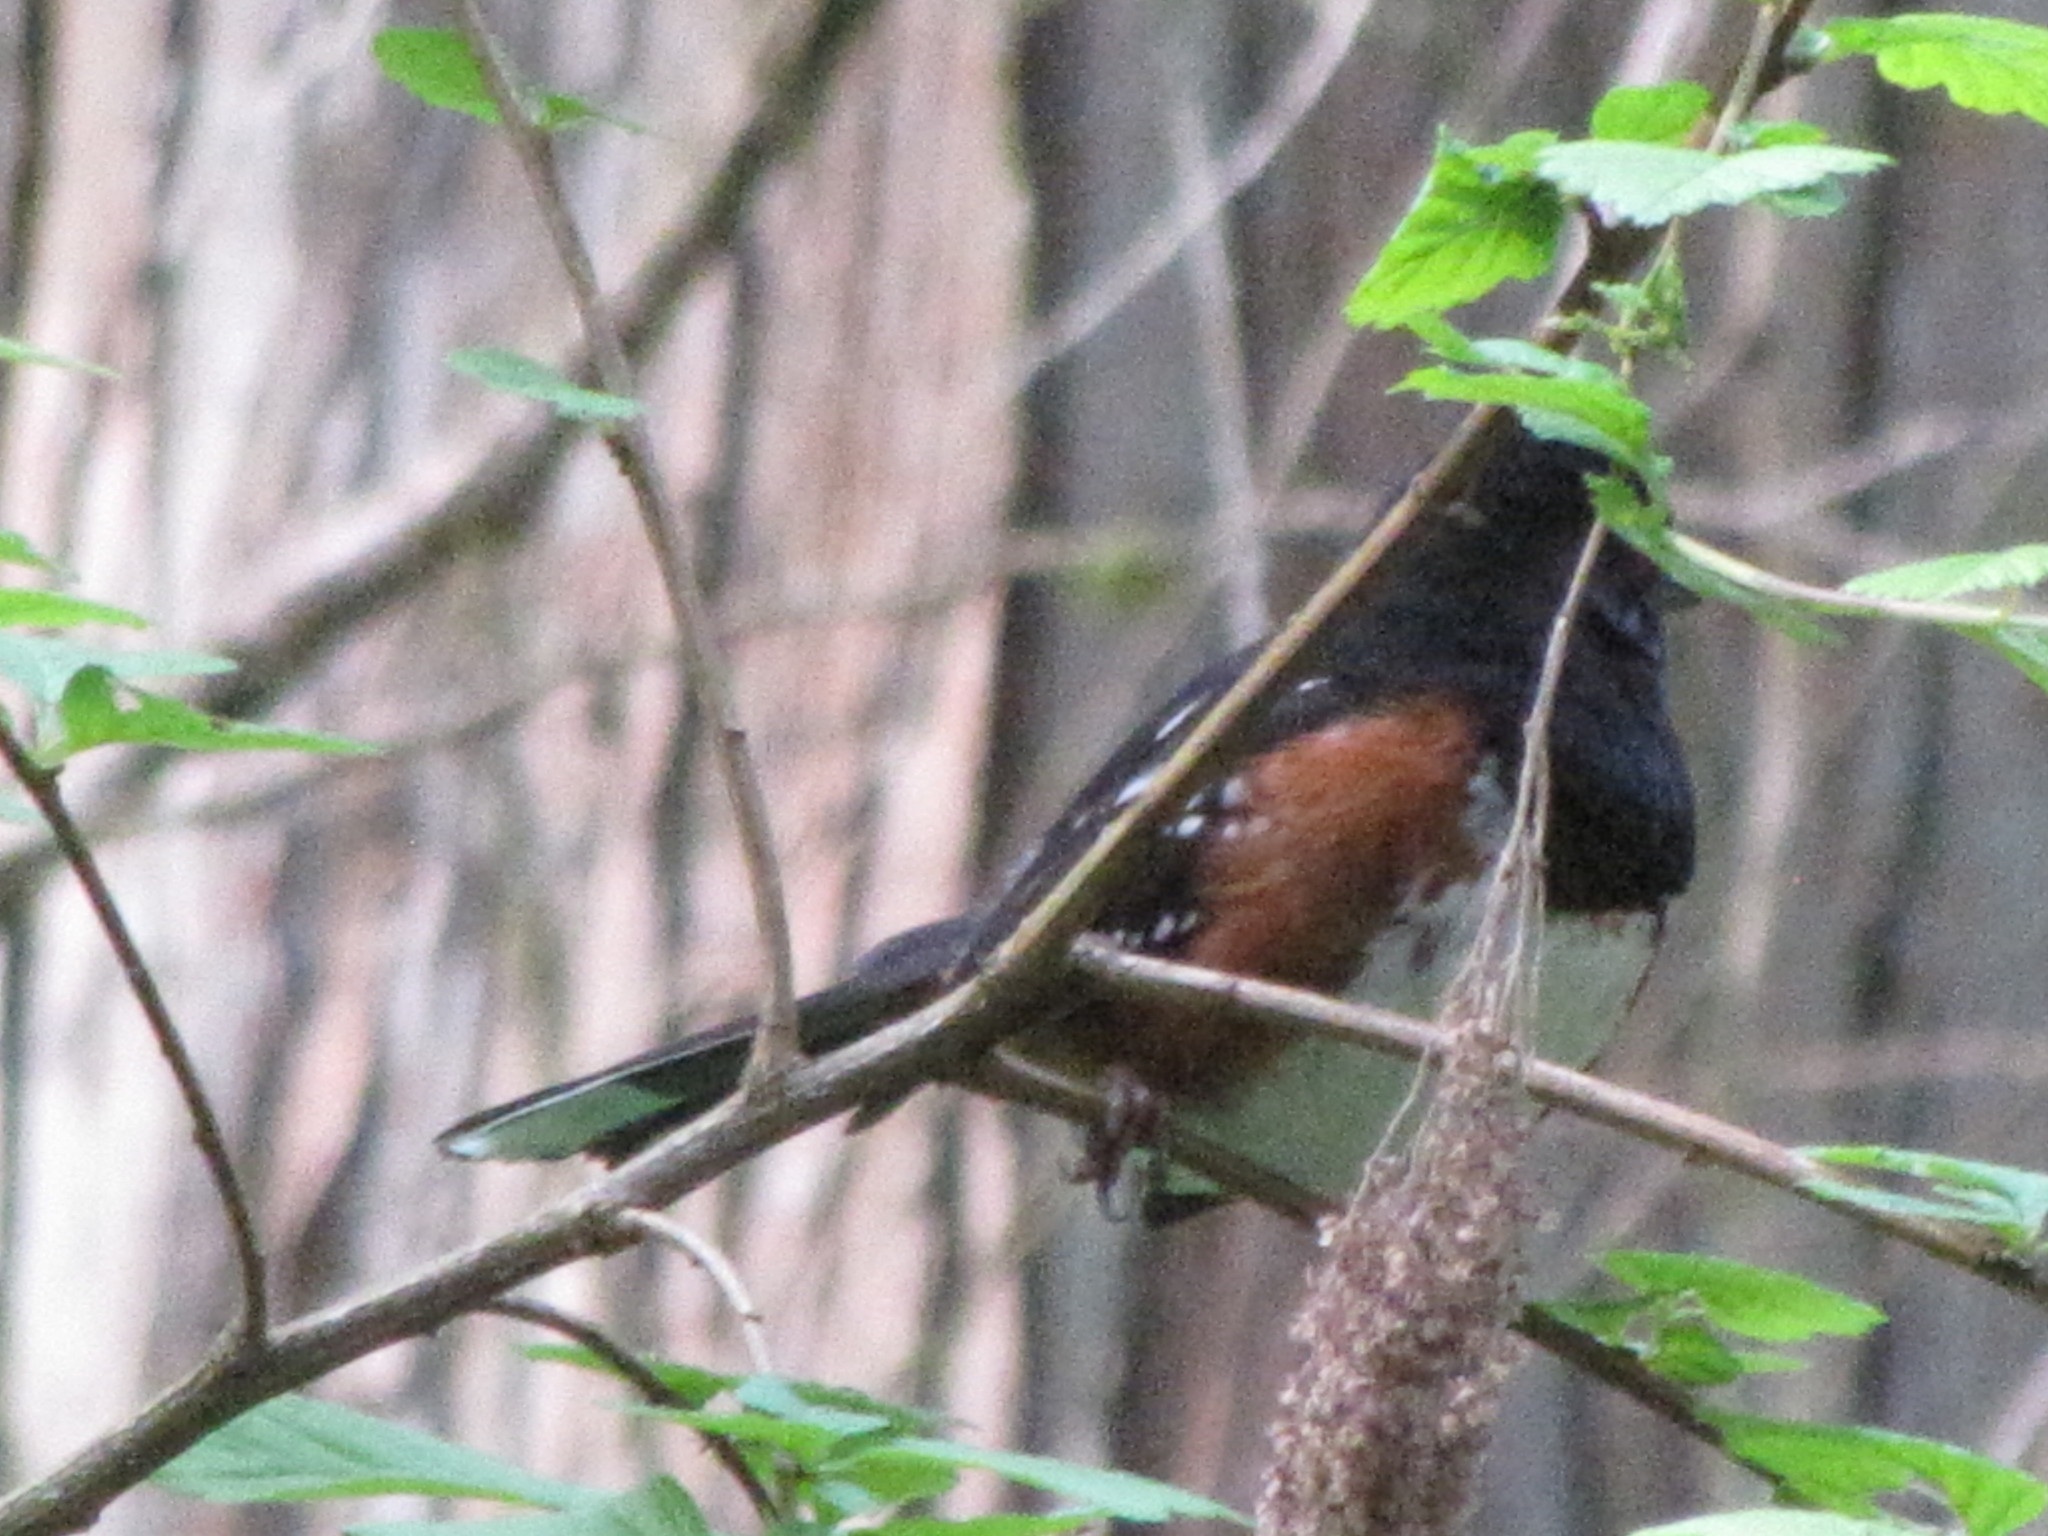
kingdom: Animalia
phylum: Chordata
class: Aves
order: Passeriformes
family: Passerellidae
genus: Pipilo
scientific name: Pipilo maculatus
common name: Spotted towhee
